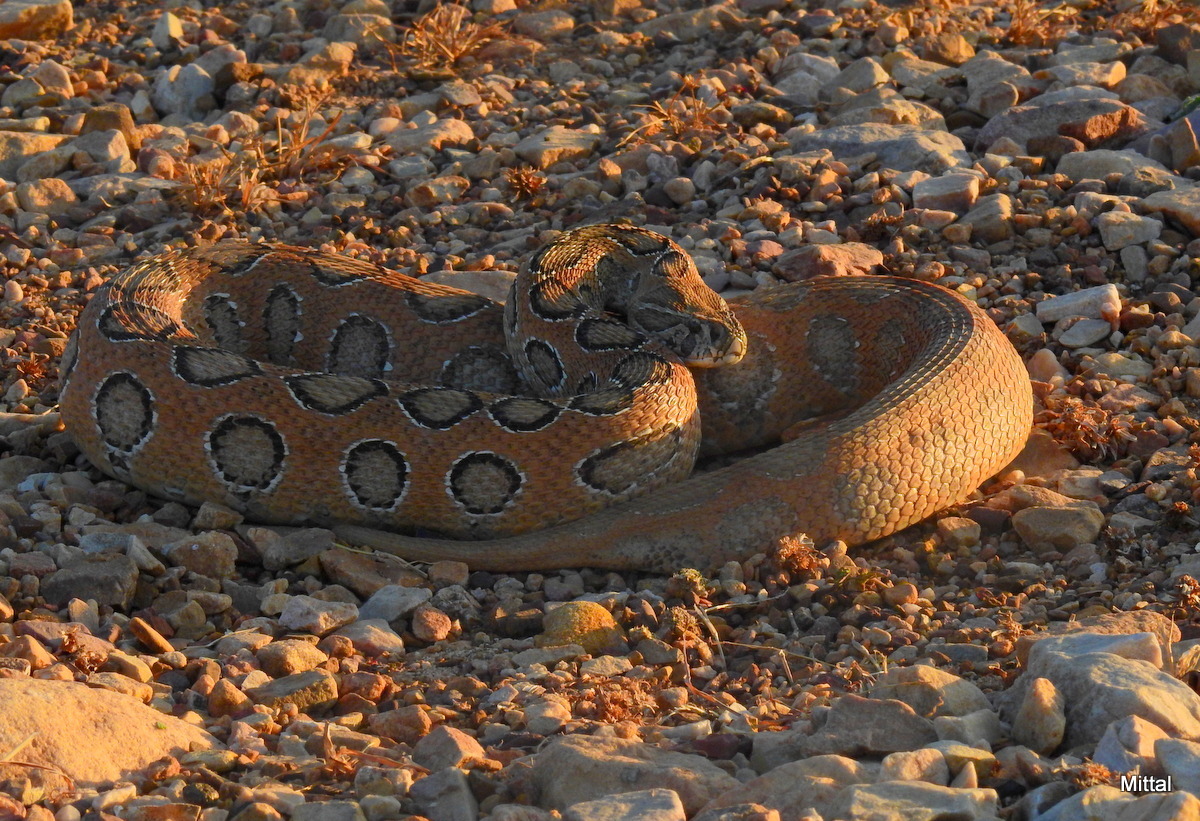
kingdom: Animalia
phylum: Chordata
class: Squamata
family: Viperidae
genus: Daboia
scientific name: Daboia russelii
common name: Western russel’s viper
